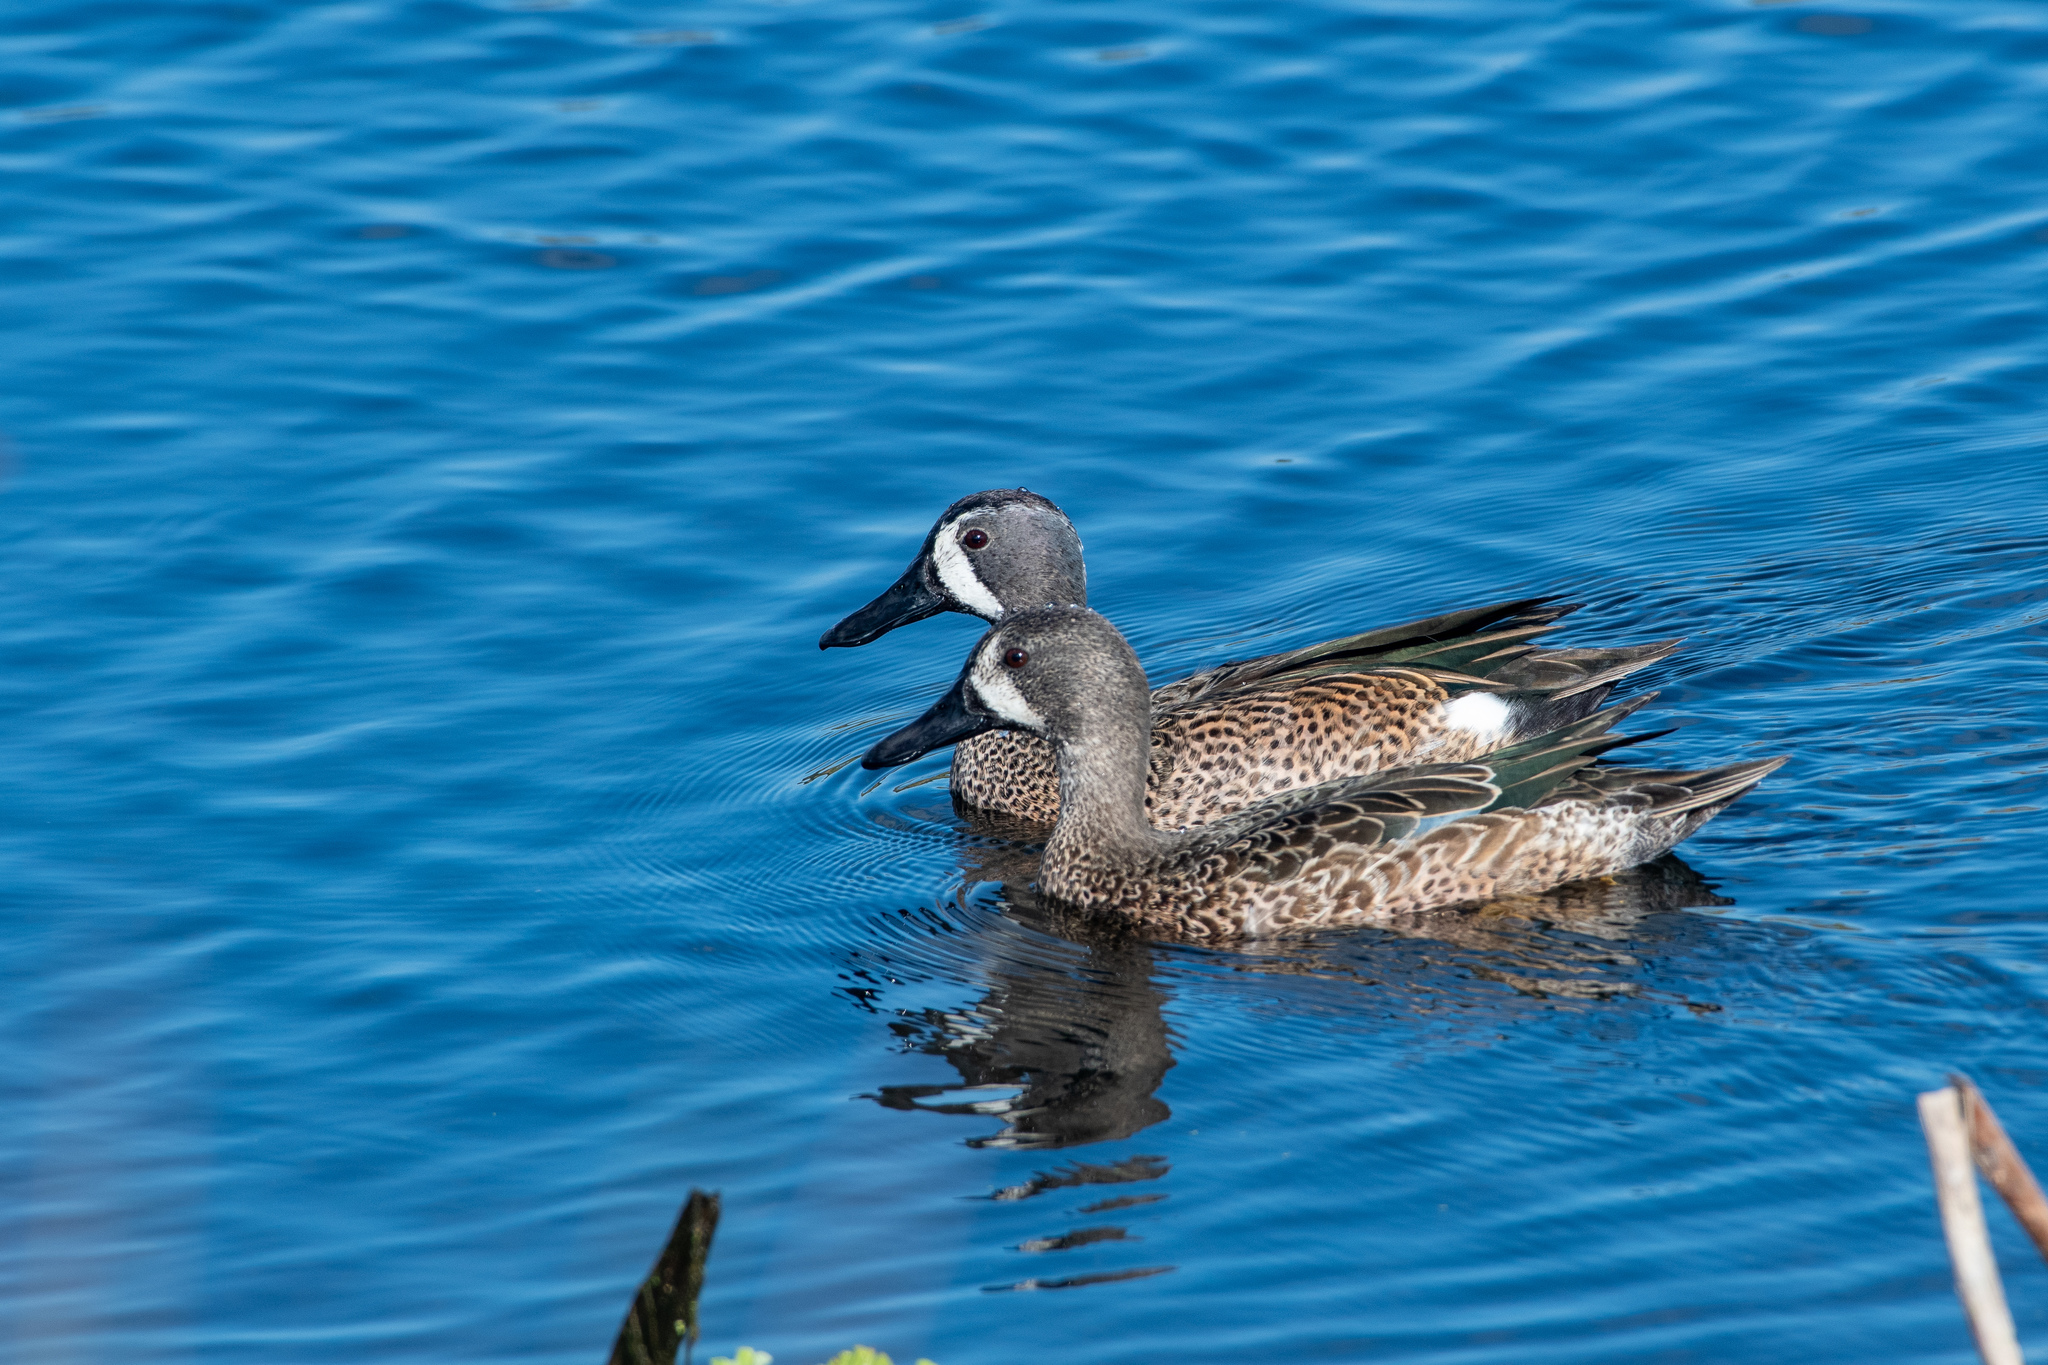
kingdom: Animalia
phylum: Chordata
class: Aves
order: Anseriformes
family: Anatidae
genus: Spatula
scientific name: Spatula discors
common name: Blue-winged teal
